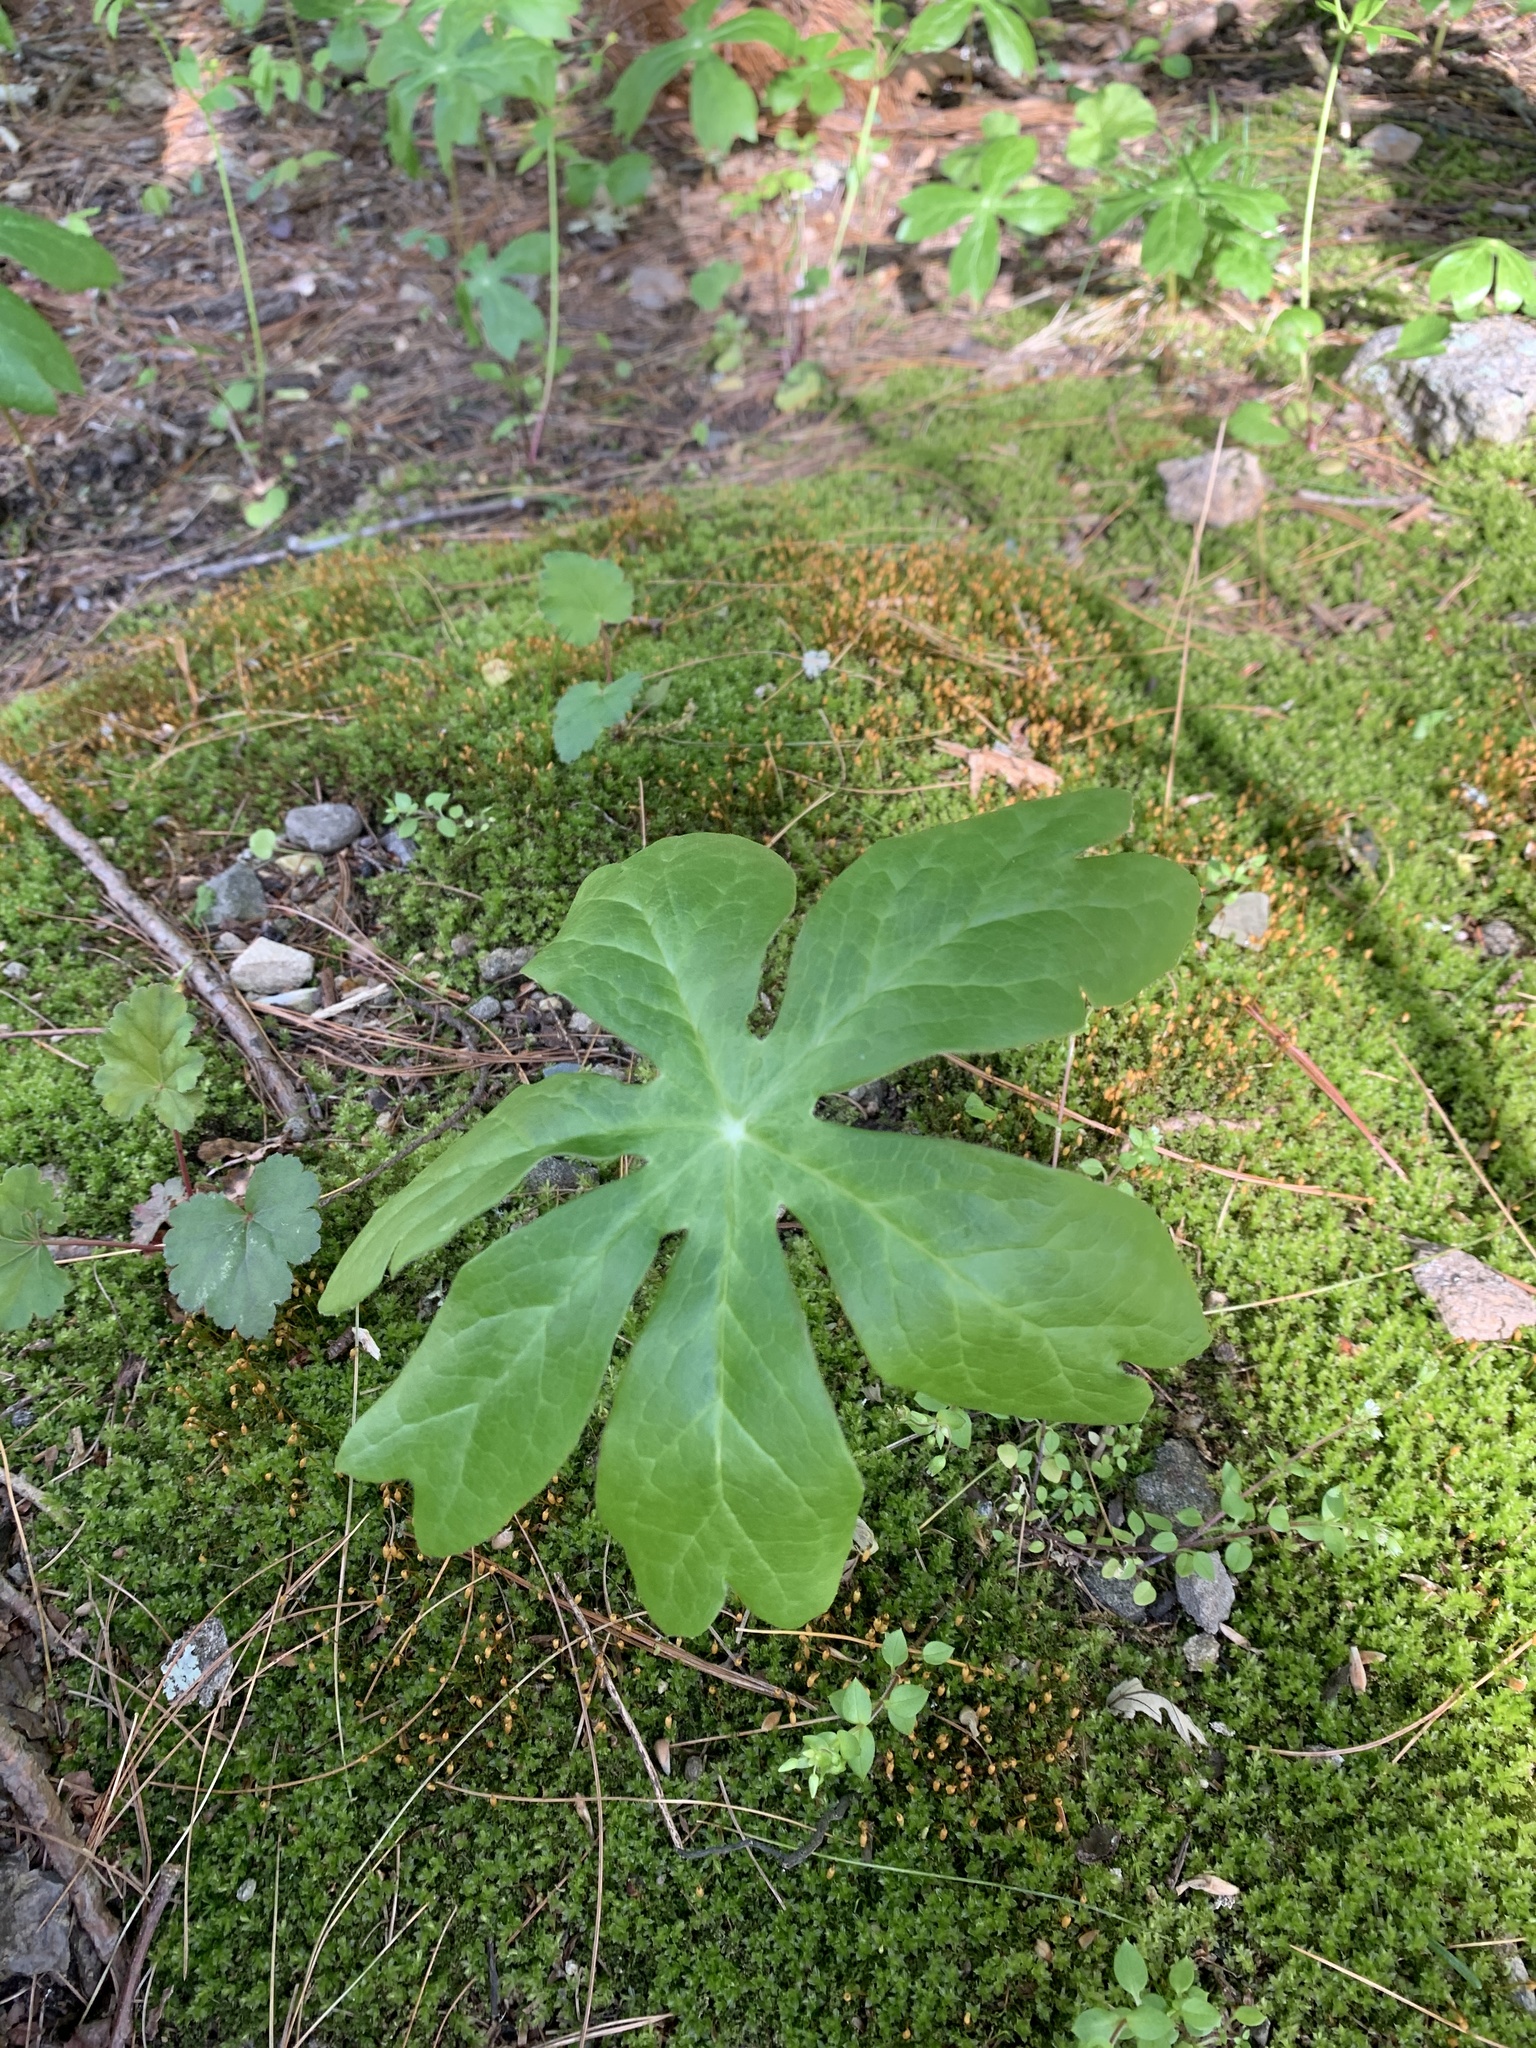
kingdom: Plantae
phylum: Tracheophyta
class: Magnoliopsida
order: Ranunculales
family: Berberidaceae
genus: Podophyllum
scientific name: Podophyllum peltatum
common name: Wild mandrake
